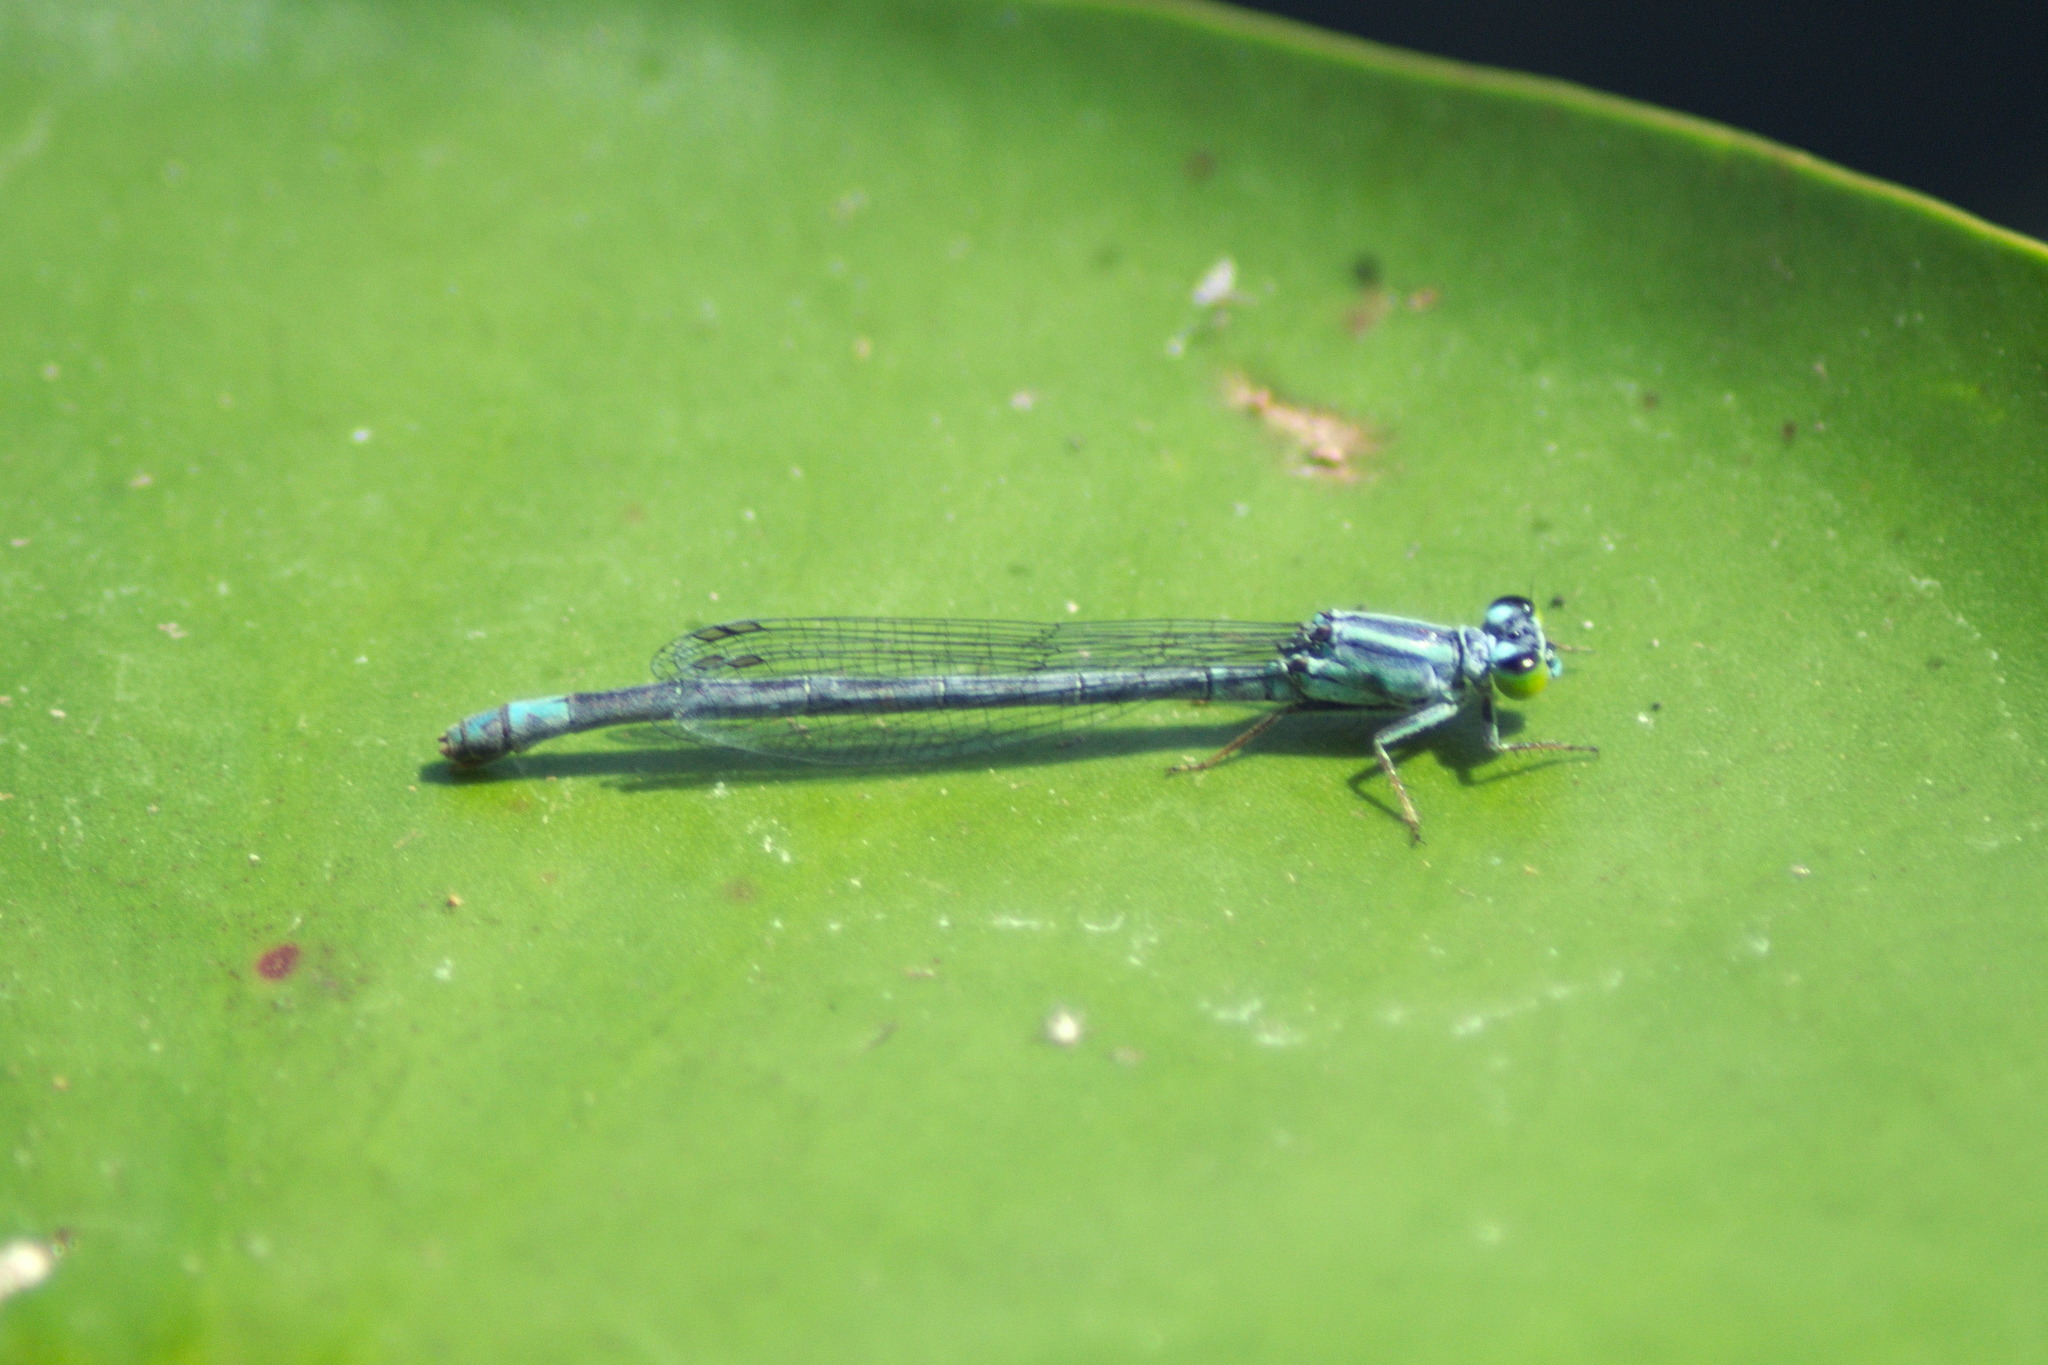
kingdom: Animalia
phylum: Arthropoda
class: Insecta
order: Odonata
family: Coenagrionidae
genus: Ischnura
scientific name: Ischnura kellicotti
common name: Lilypad forktail
